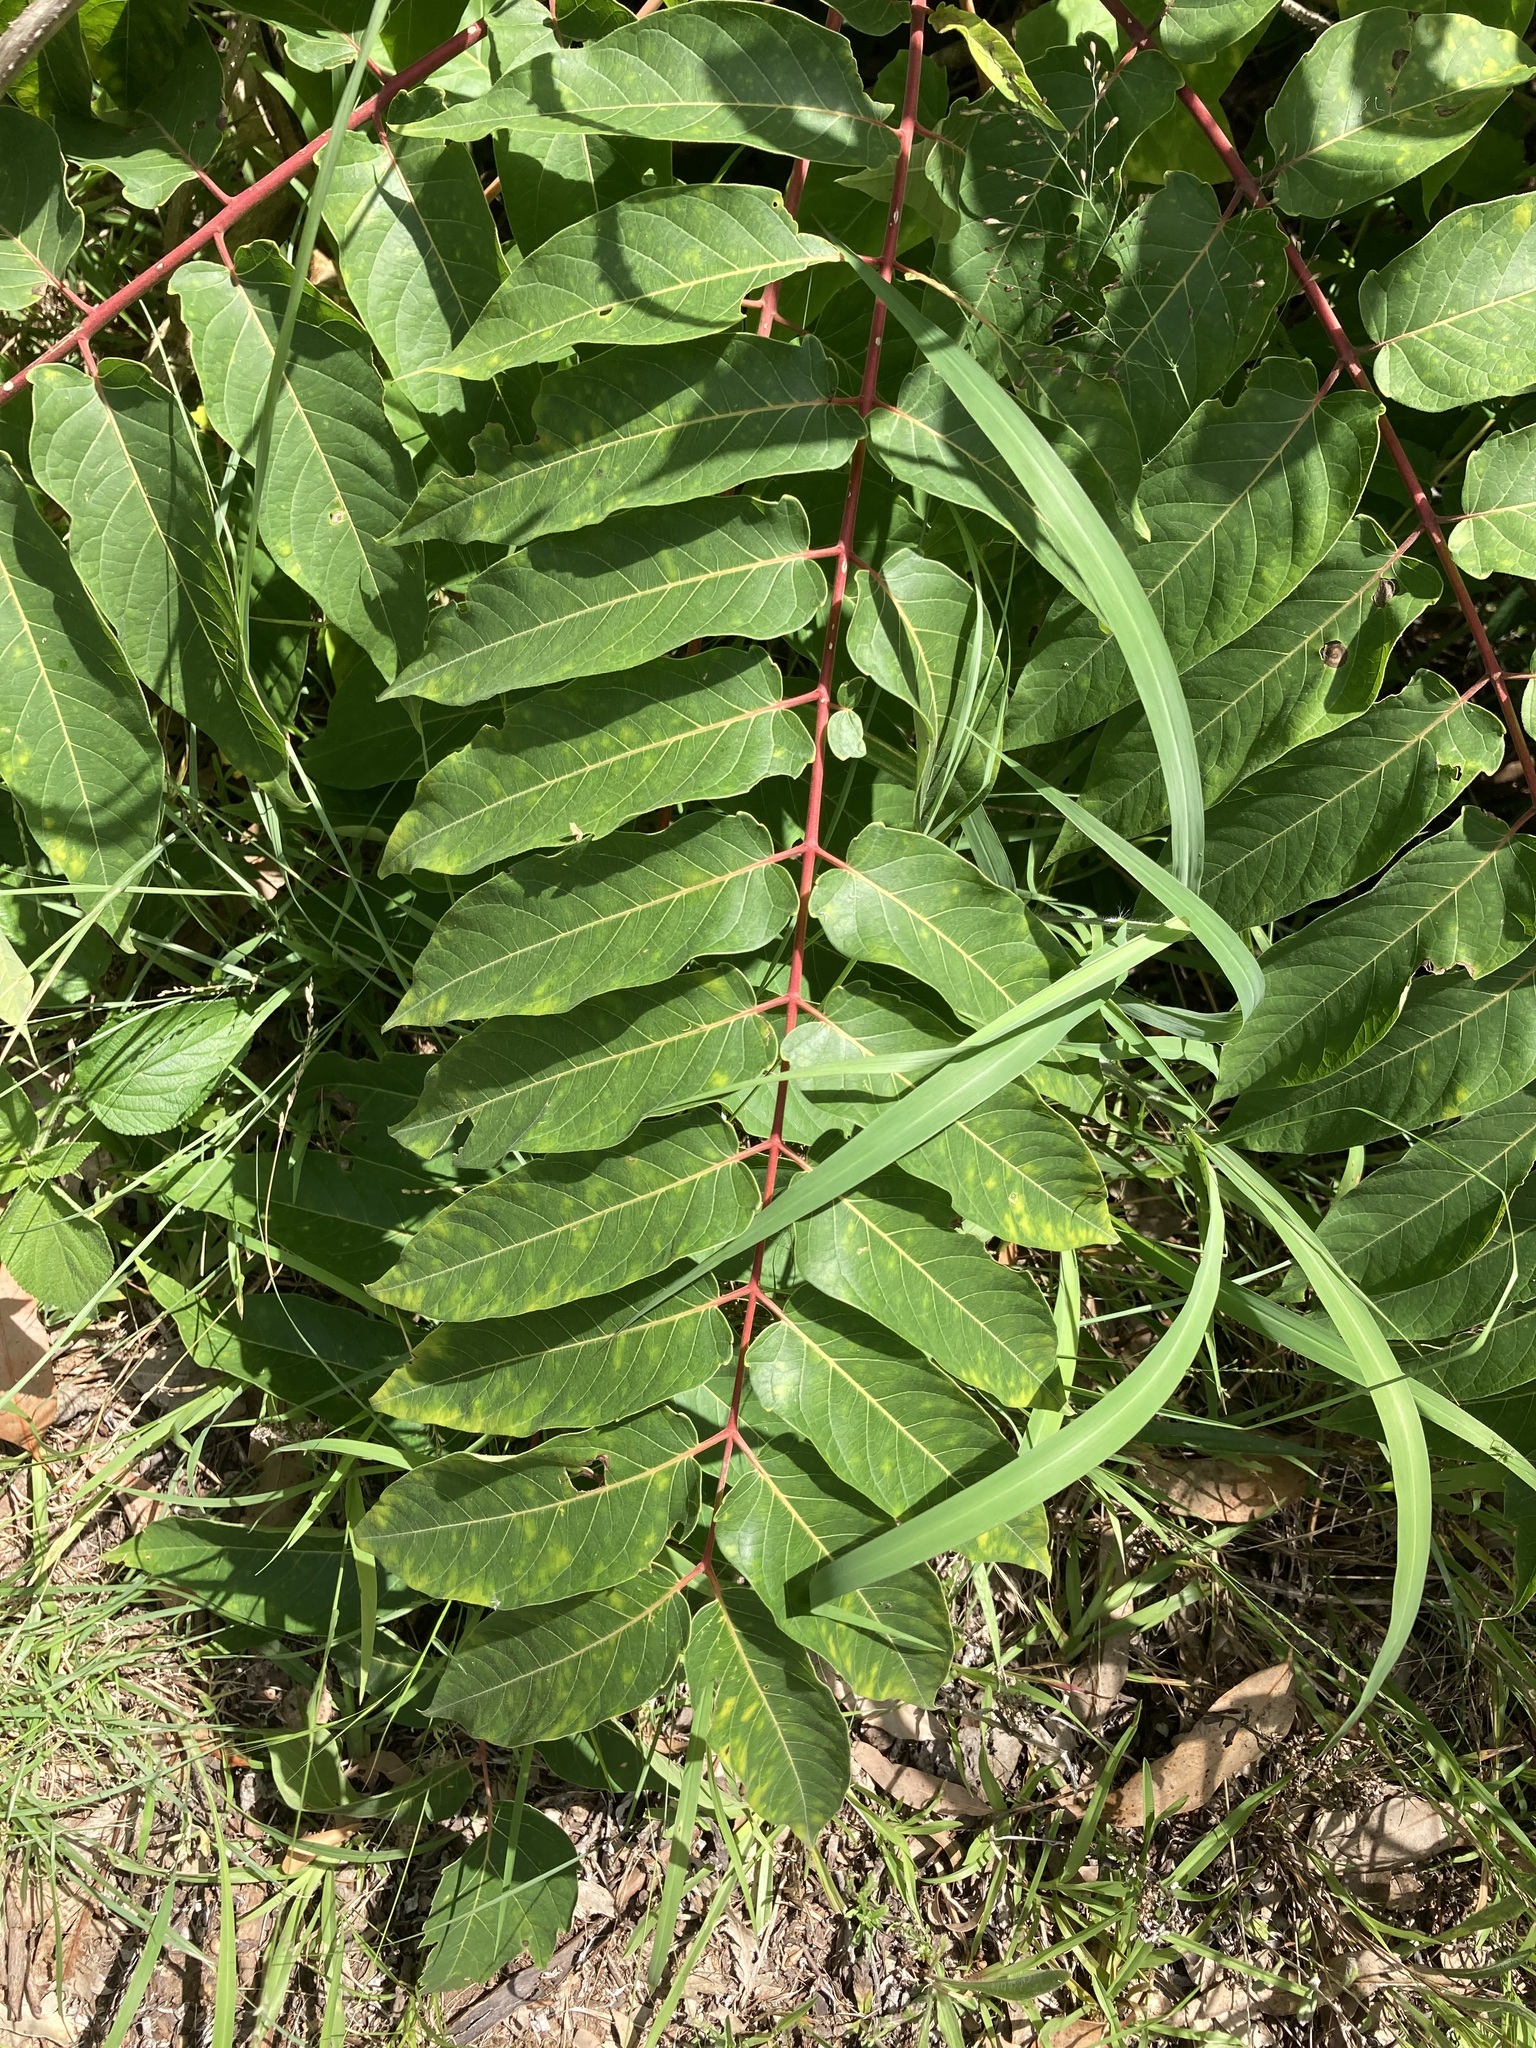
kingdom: Plantae
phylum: Tracheophyta
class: Magnoliopsida
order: Sapindales
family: Simaroubaceae
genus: Ailanthus
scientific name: Ailanthus altissima
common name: Tree-of-heaven
